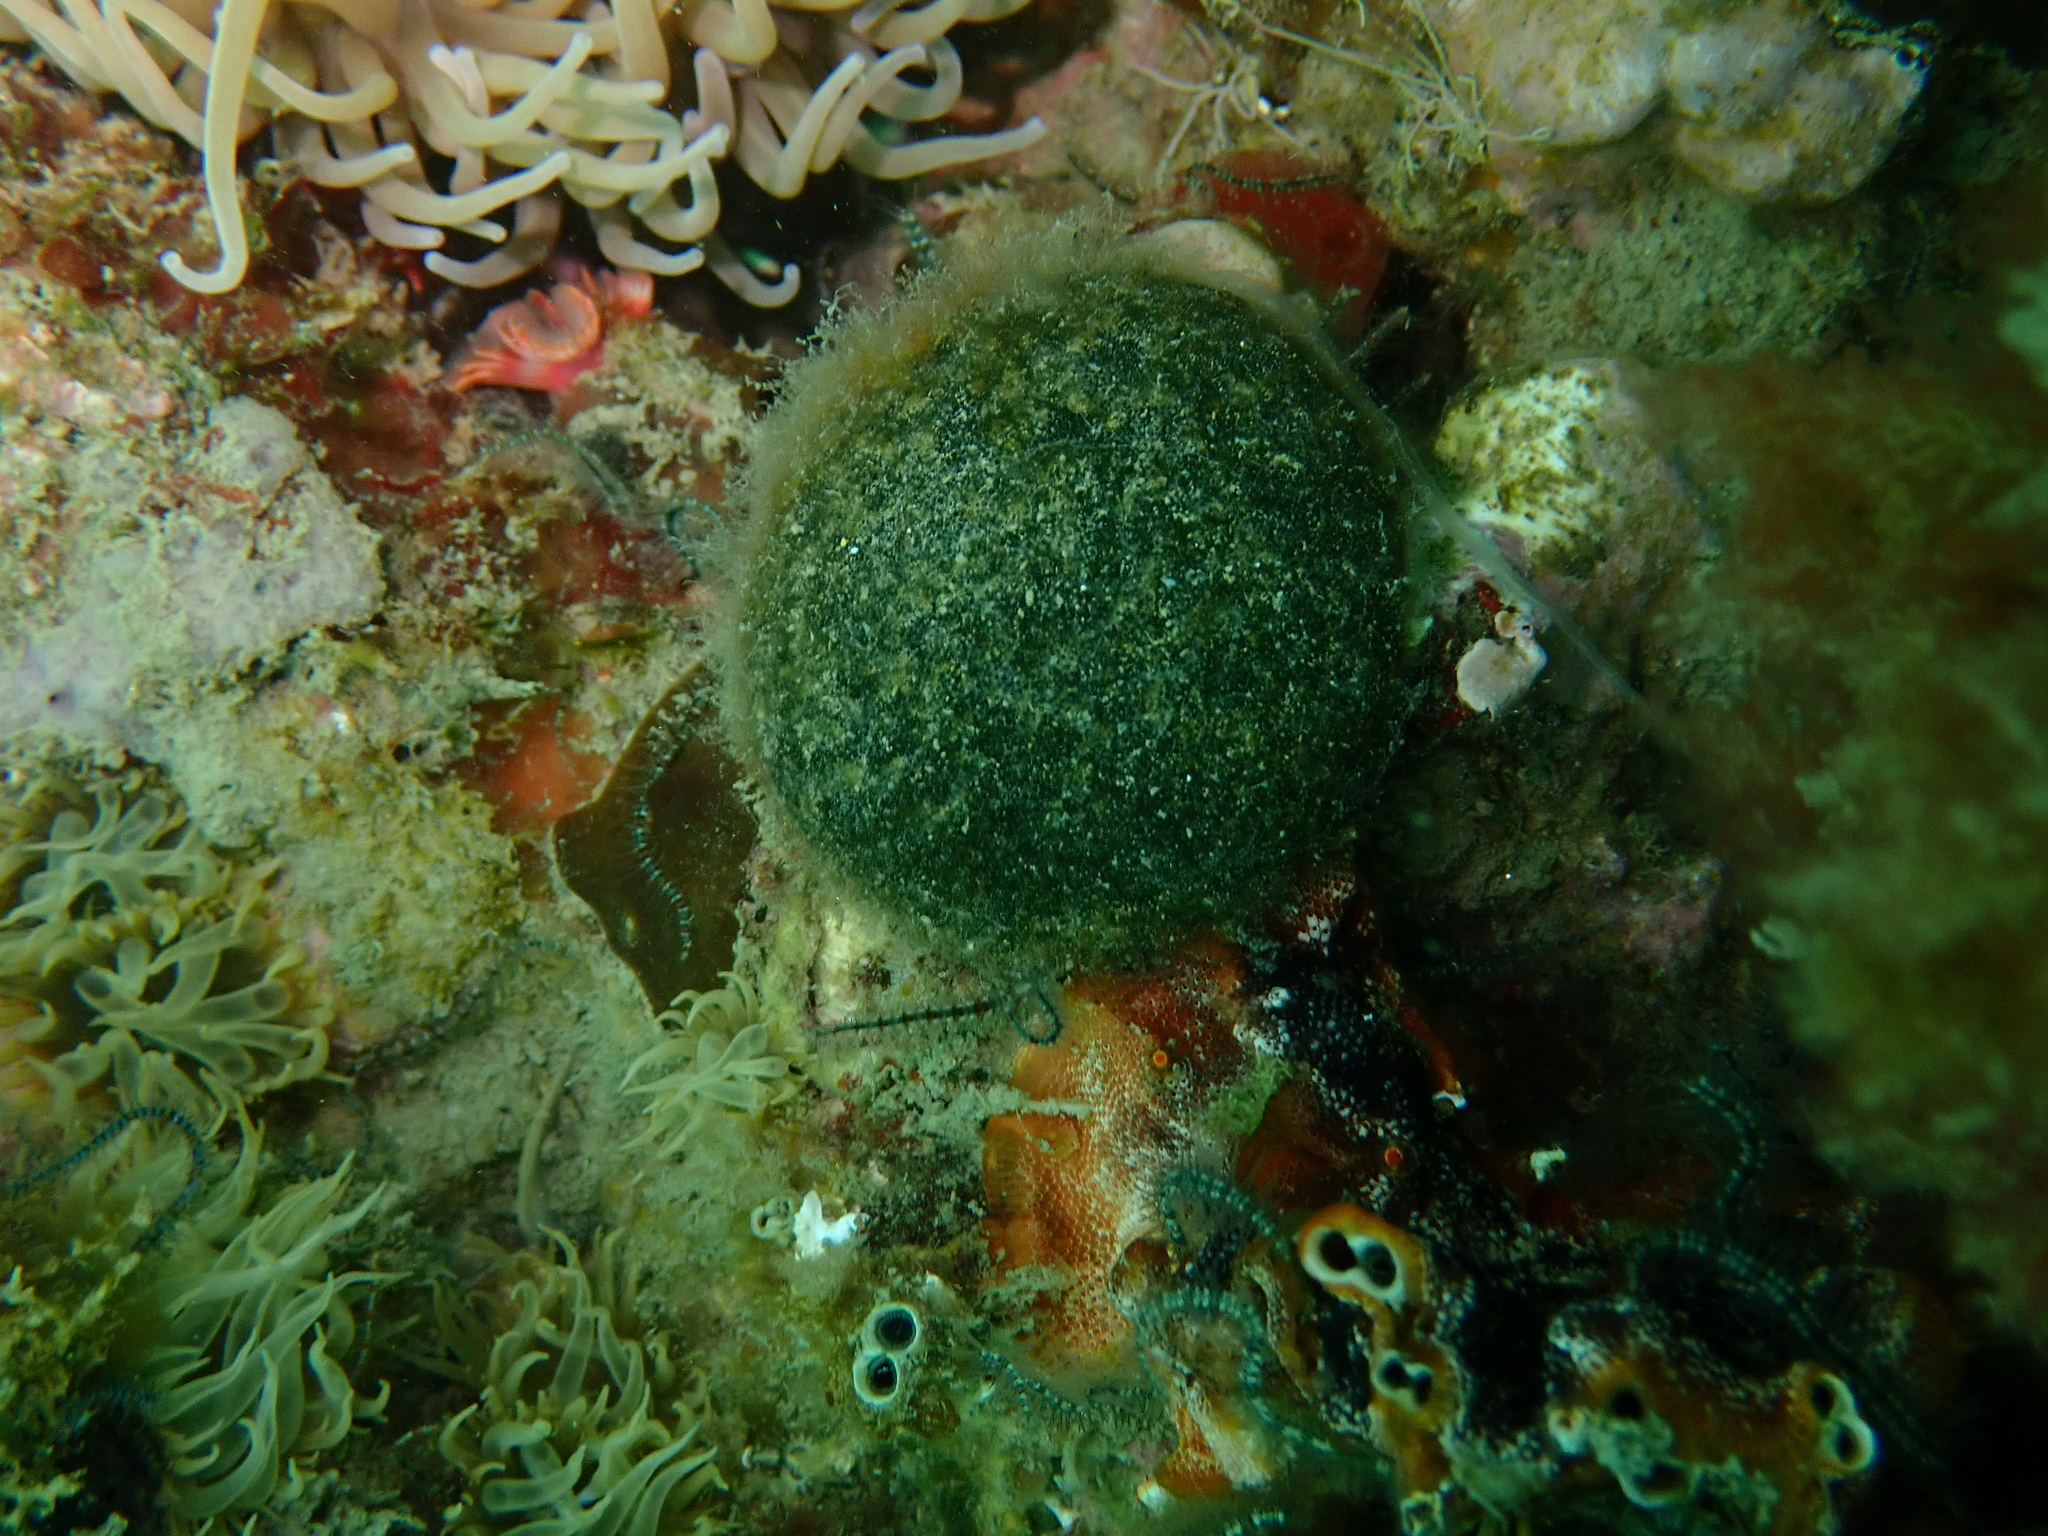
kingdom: Plantae
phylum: Chlorophyta
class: Ulvophyceae
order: Bryopsidales
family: Codiaceae
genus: Codium
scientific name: Codium bursa
